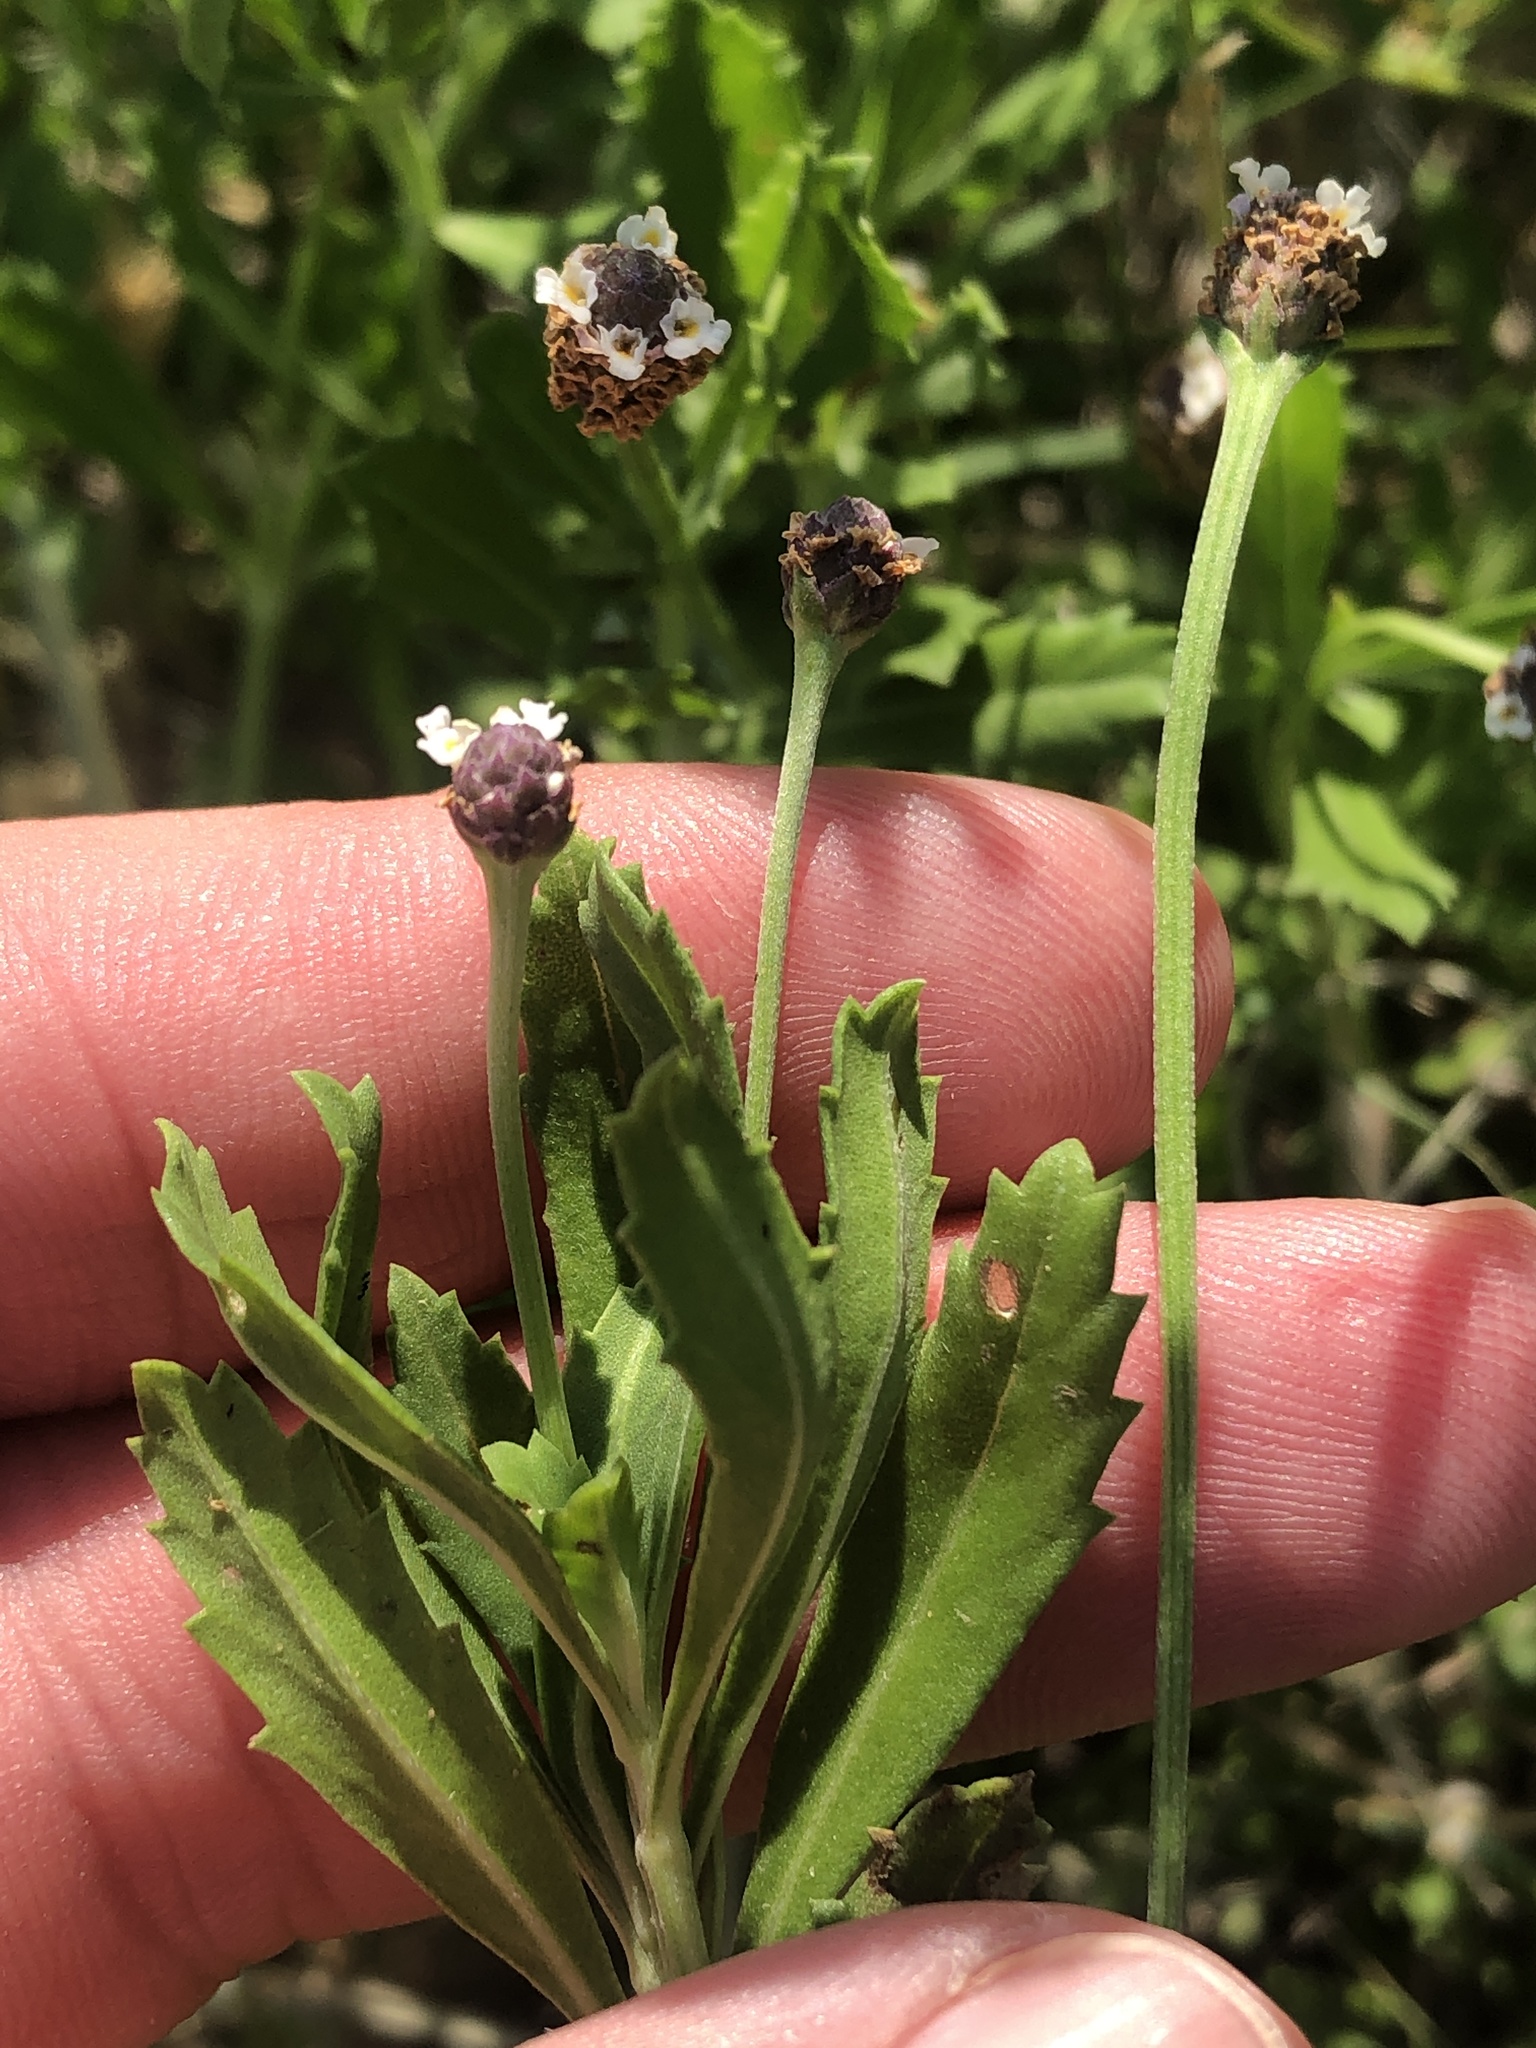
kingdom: Plantae
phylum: Tracheophyta
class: Magnoliopsida
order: Lamiales
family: Verbenaceae
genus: Phyla
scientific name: Phyla nodiflora
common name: Frogfruit
